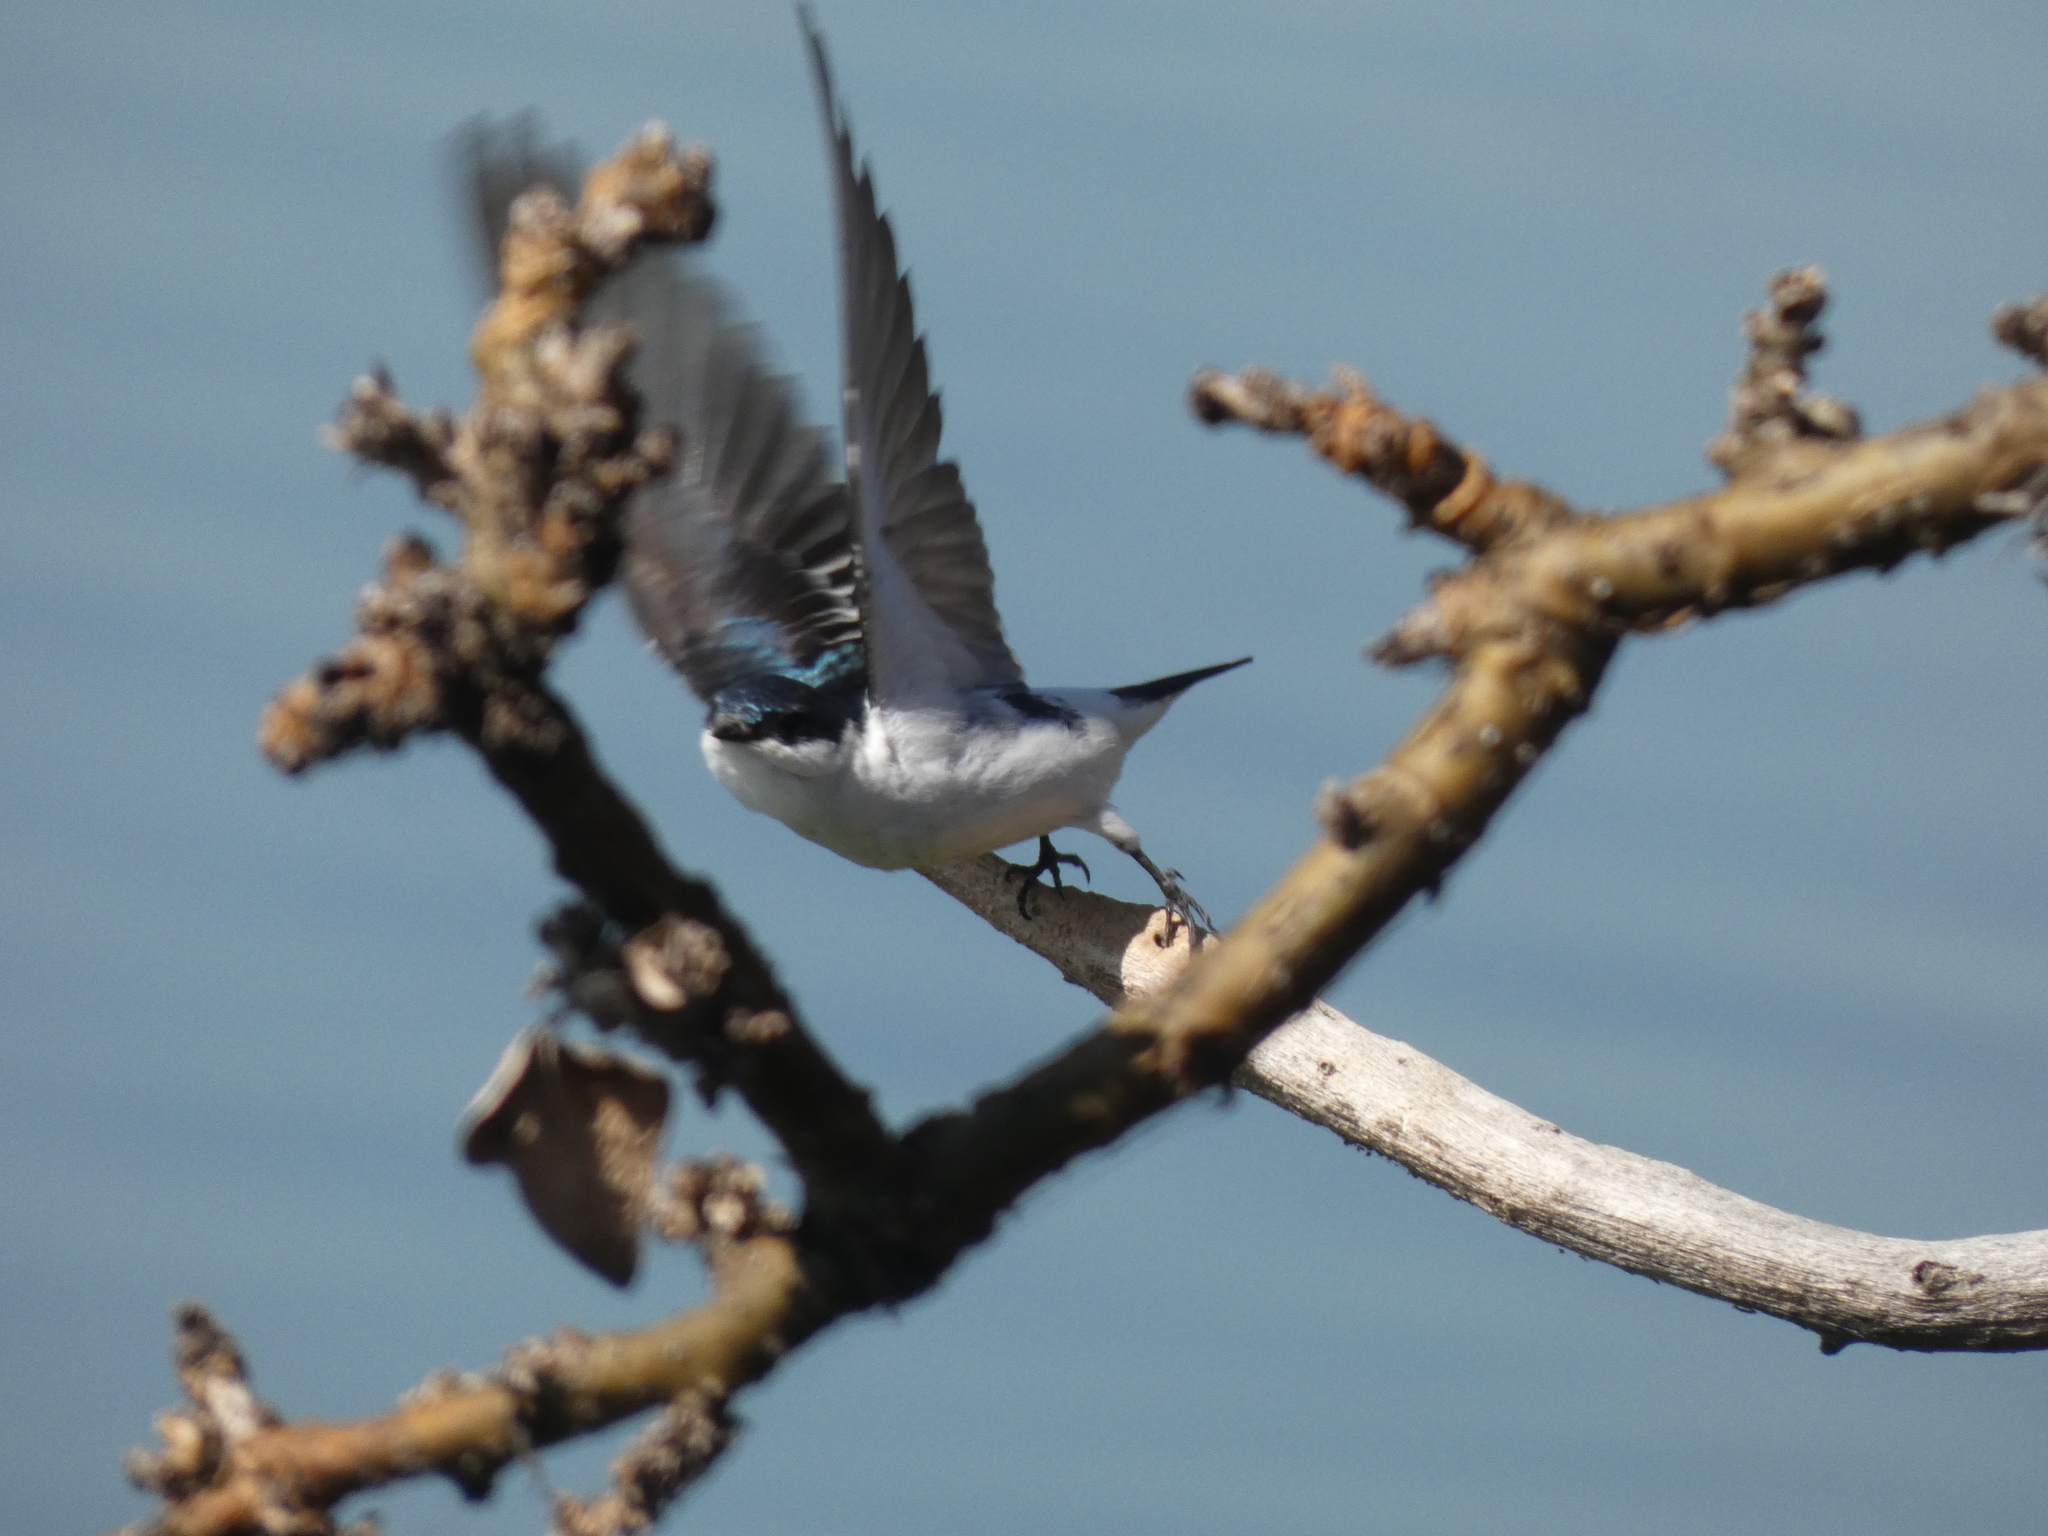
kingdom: Animalia
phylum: Chordata
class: Aves
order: Passeriformes
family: Hirundinidae
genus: Tachycineta
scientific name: Tachycineta albiventer
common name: White-winged swallow
